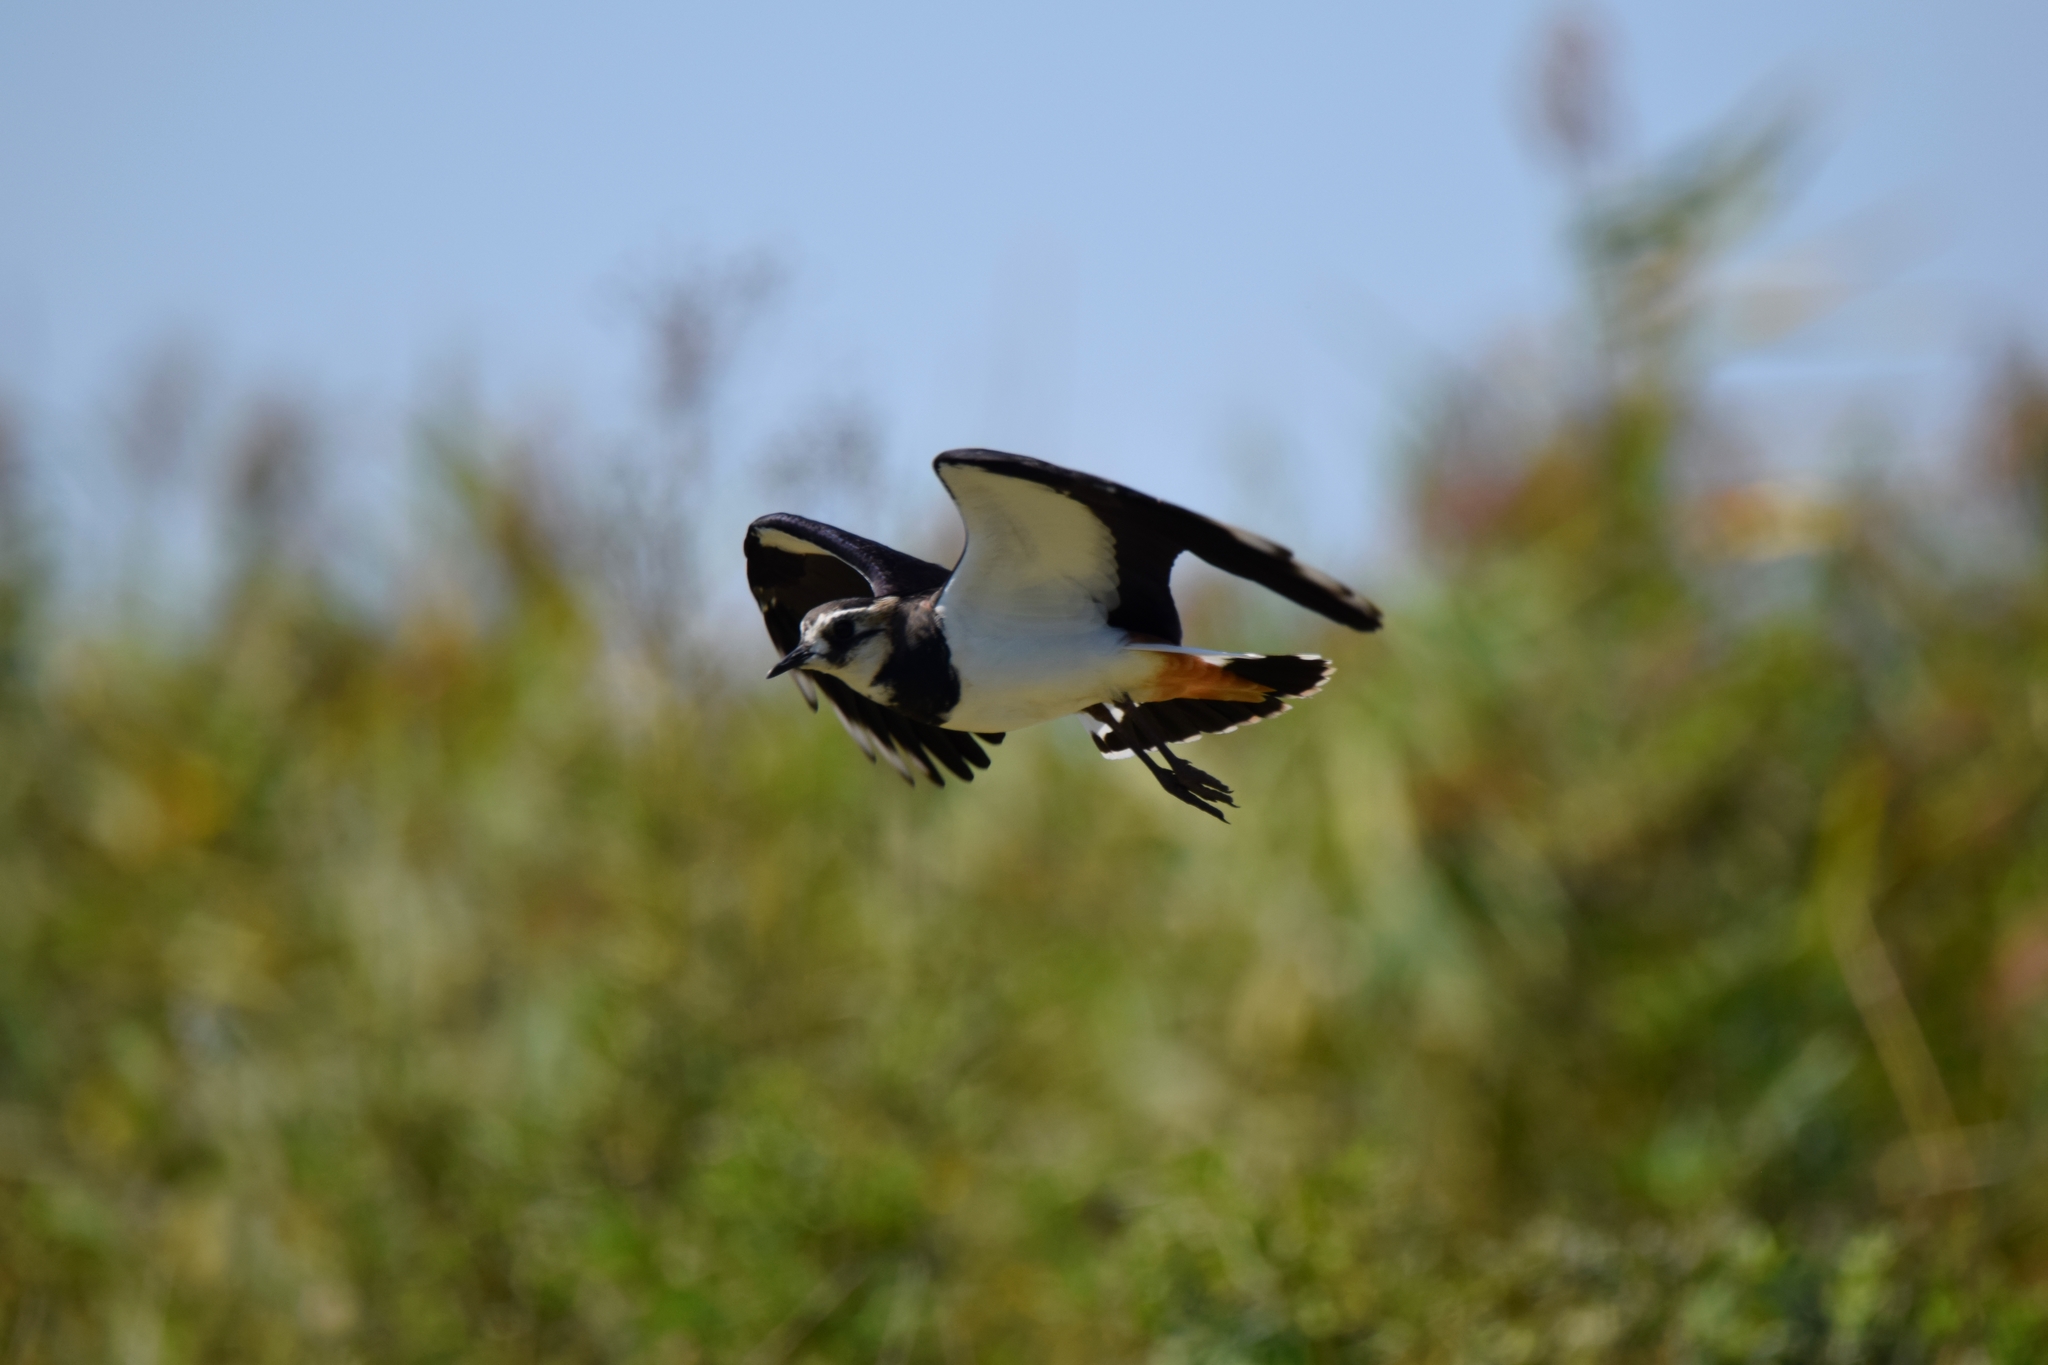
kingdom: Animalia
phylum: Chordata
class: Aves
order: Charadriiformes
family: Charadriidae
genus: Vanellus
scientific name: Vanellus vanellus
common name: Northern lapwing
